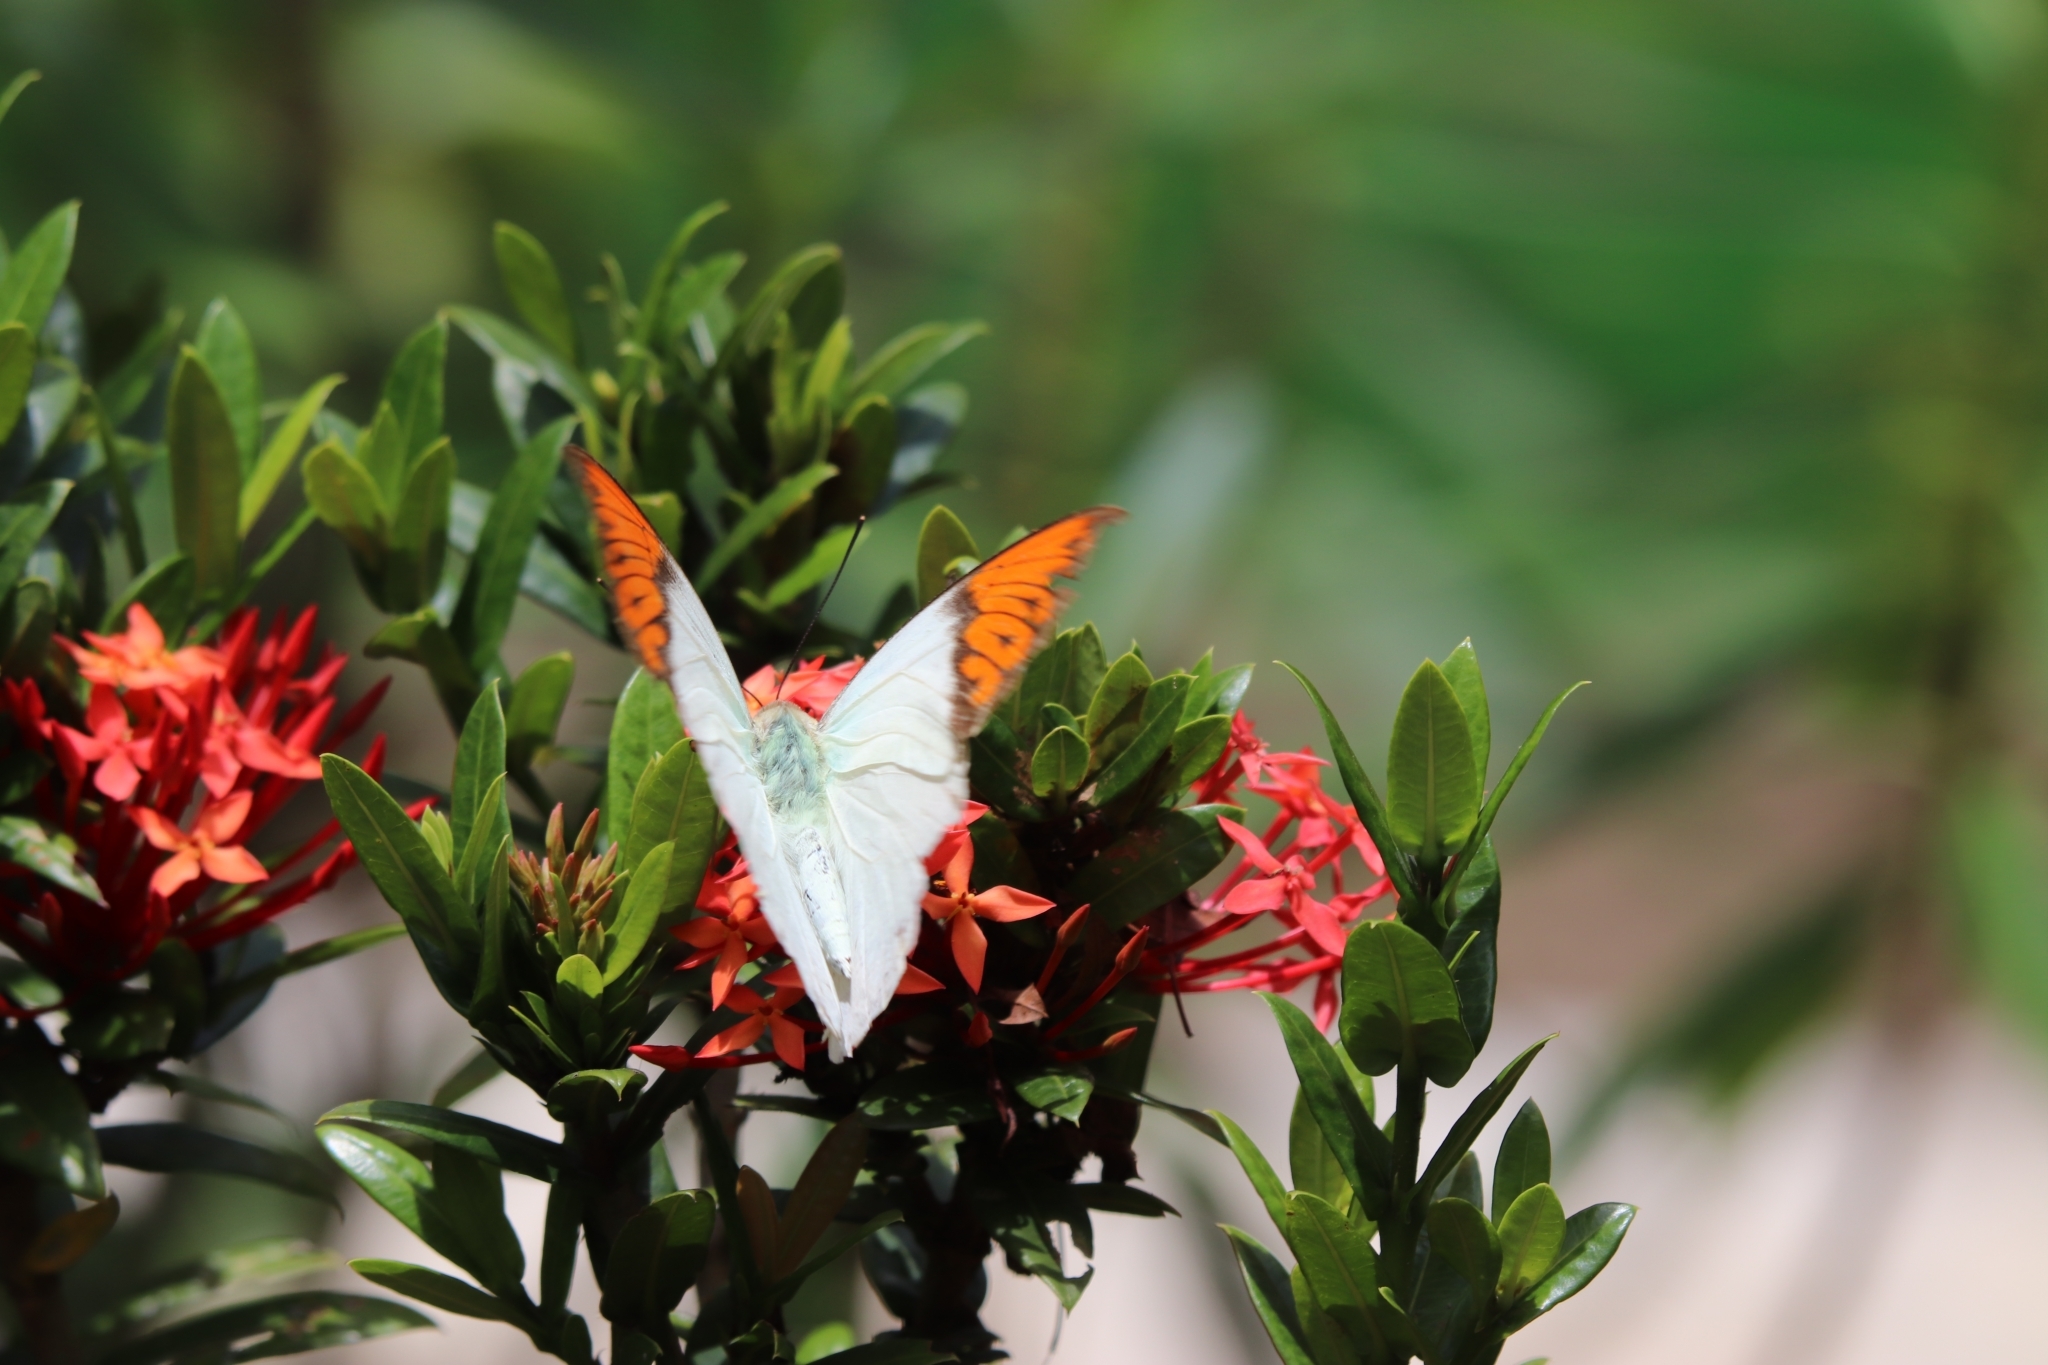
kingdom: Animalia
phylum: Arthropoda
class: Insecta
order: Lepidoptera
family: Pieridae
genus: Hebomoia
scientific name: Hebomoia glaucippe
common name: Great orange tip
